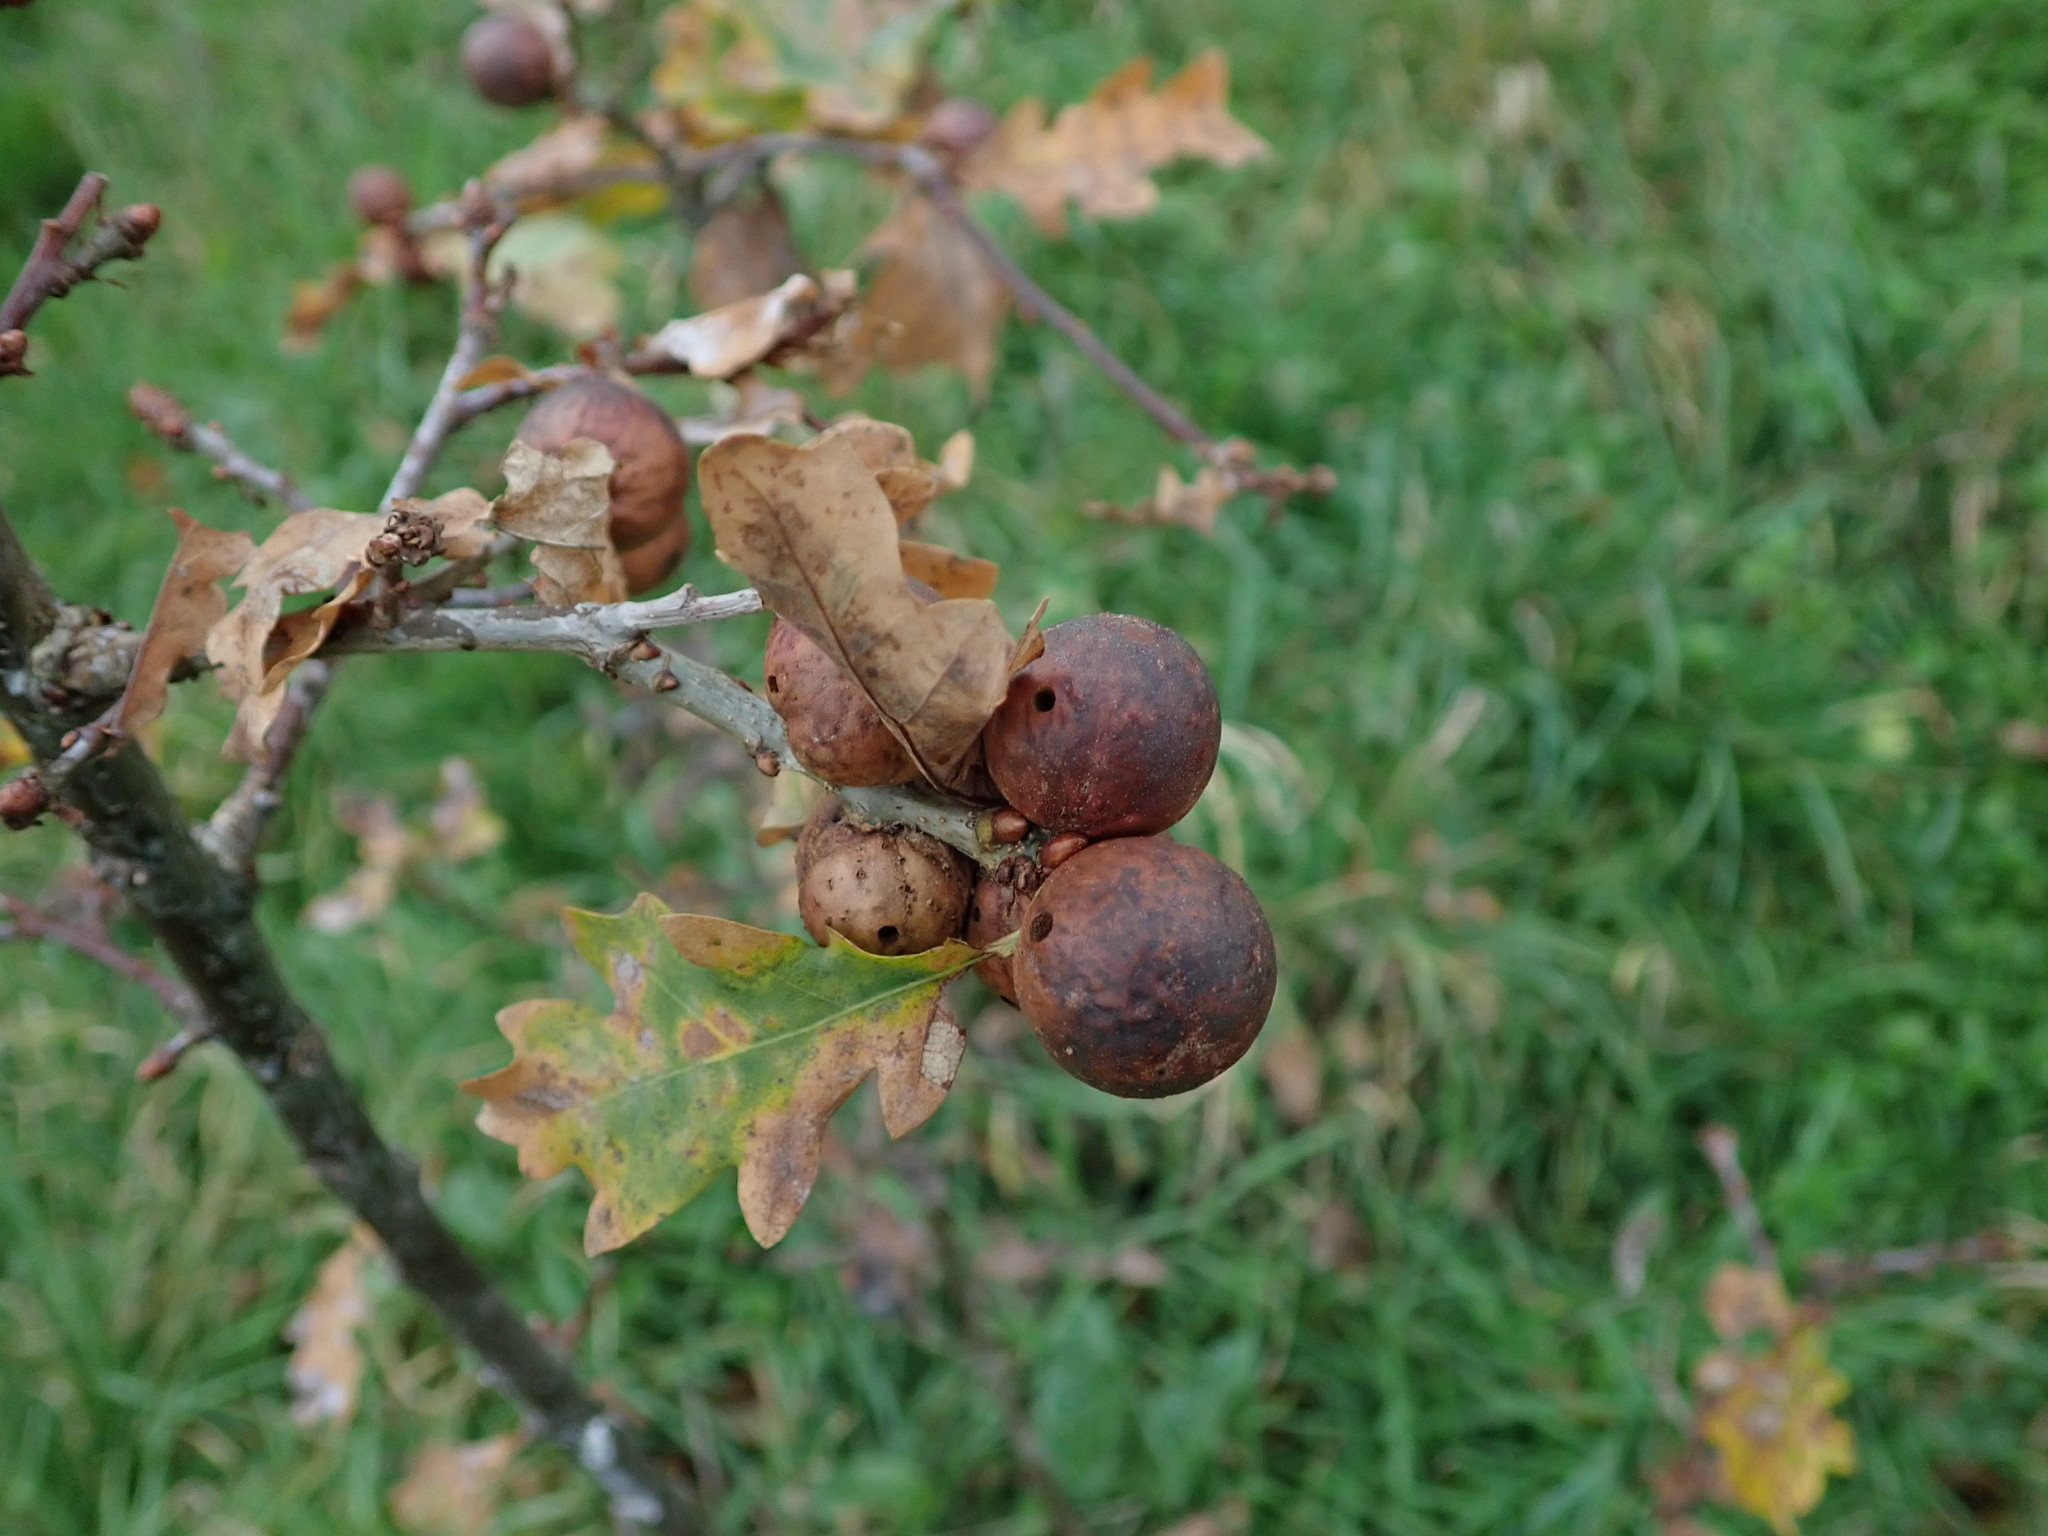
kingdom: Animalia
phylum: Arthropoda
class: Insecta
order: Hymenoptera
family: Cynipidae
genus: Andricus
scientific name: Andricus kollari
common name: Marble gall
